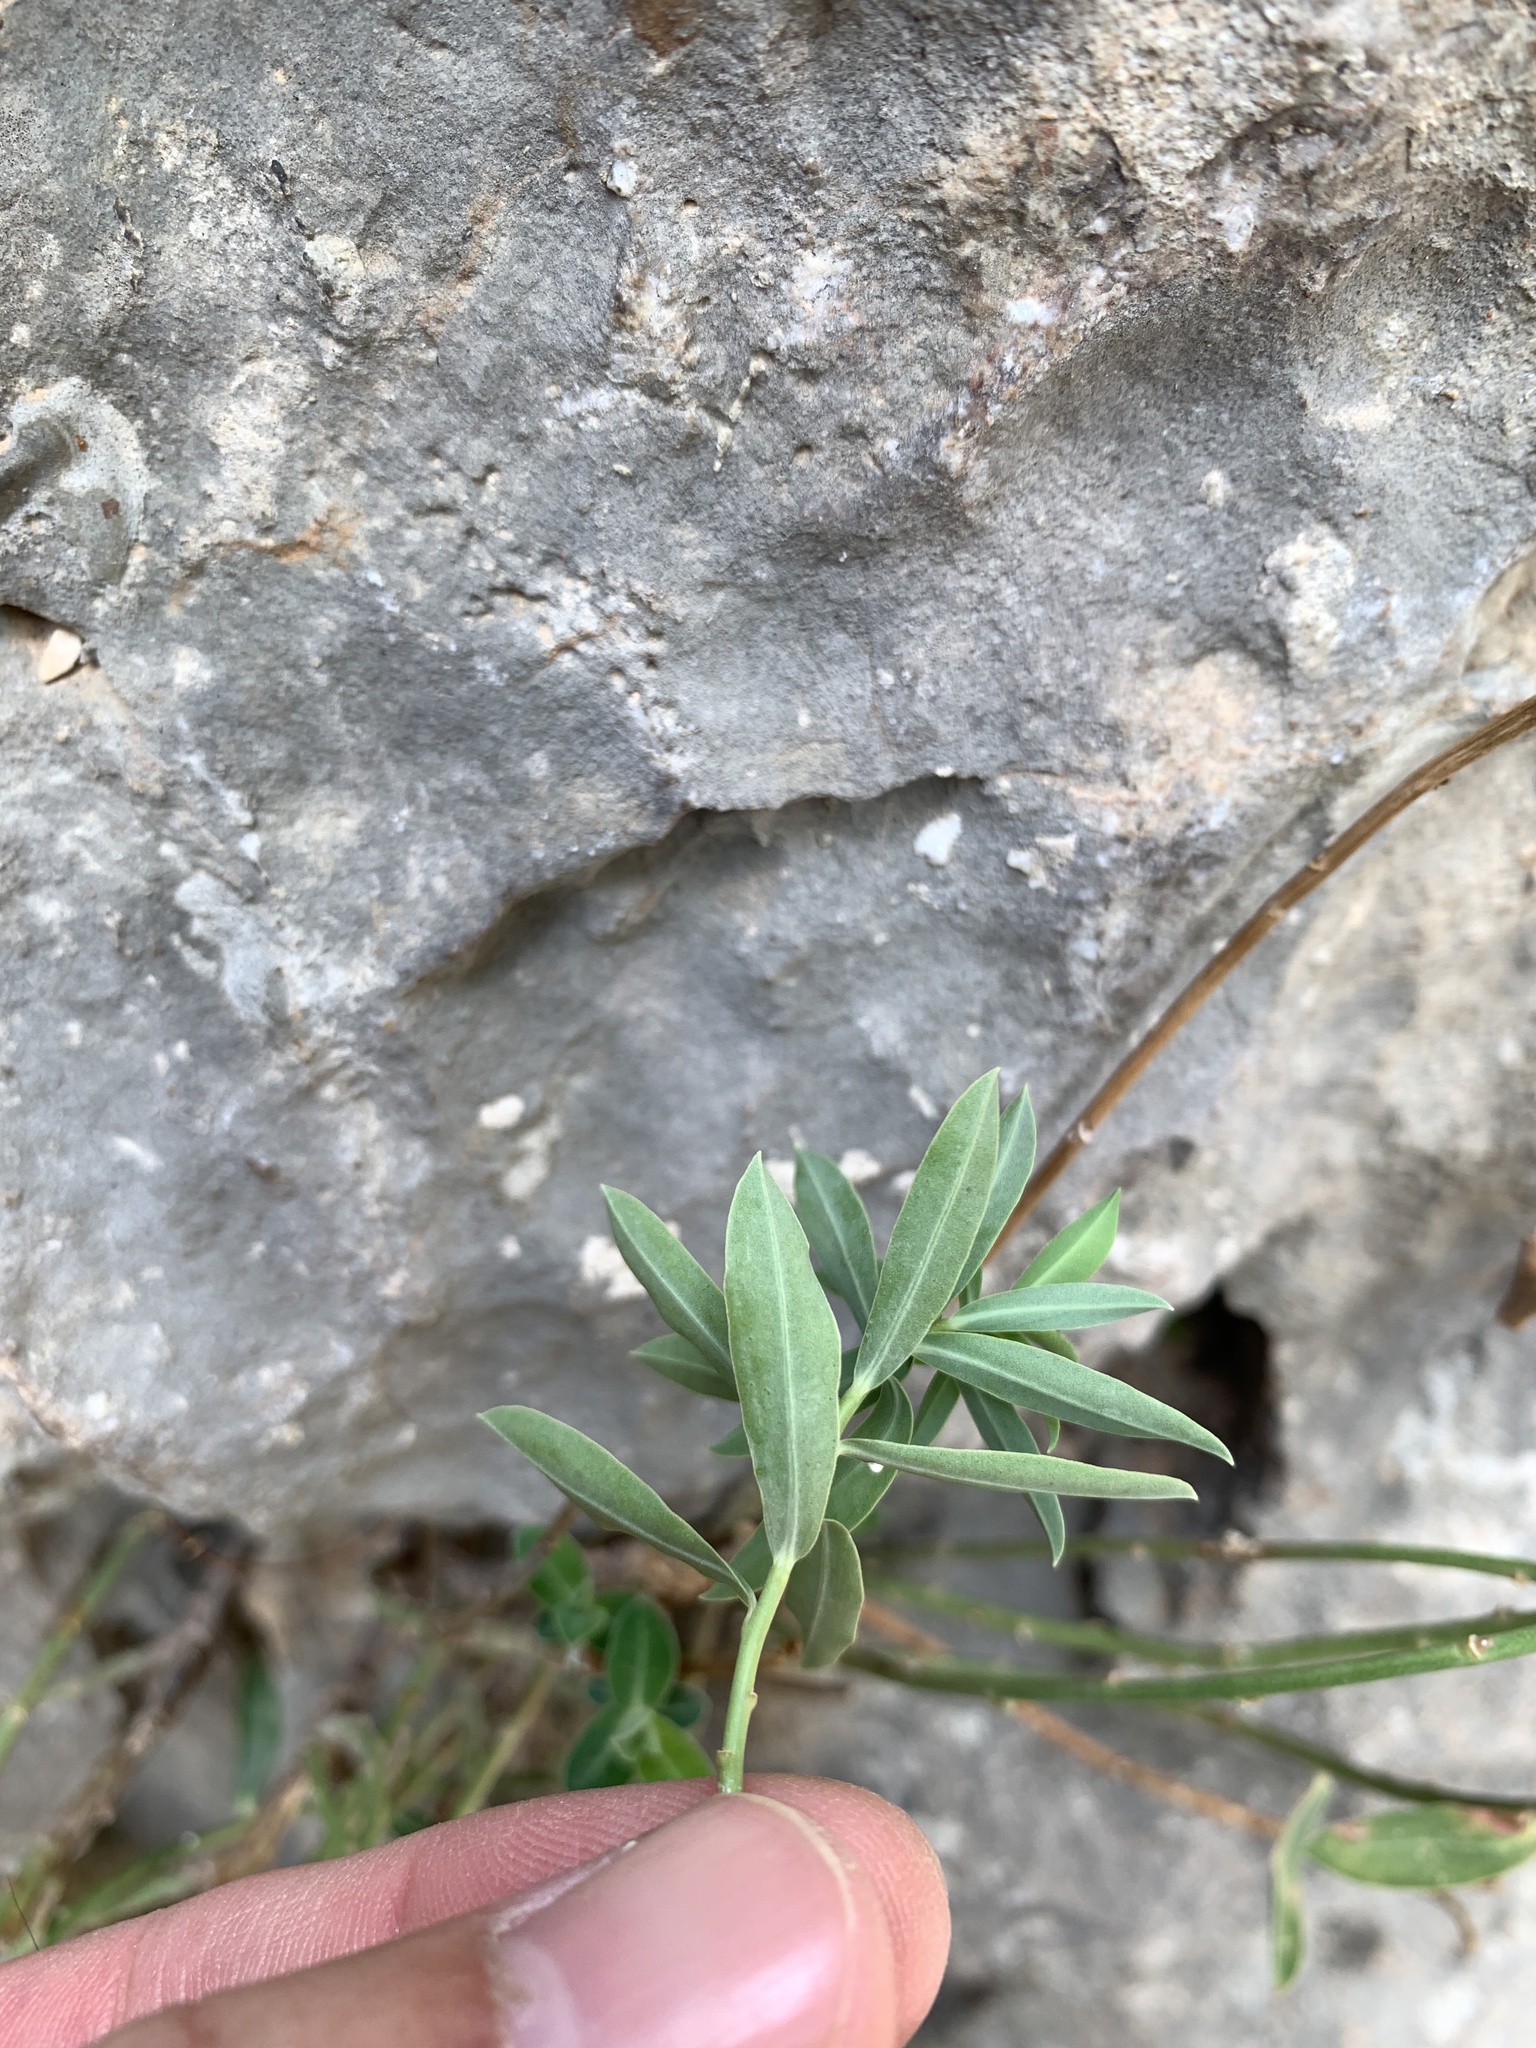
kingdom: Plantae
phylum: Tracheophyta
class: Magnoliopsida
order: Malpighiales
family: Euphorbiaceae
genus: Euphorbia
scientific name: Euphorbia fragifera
